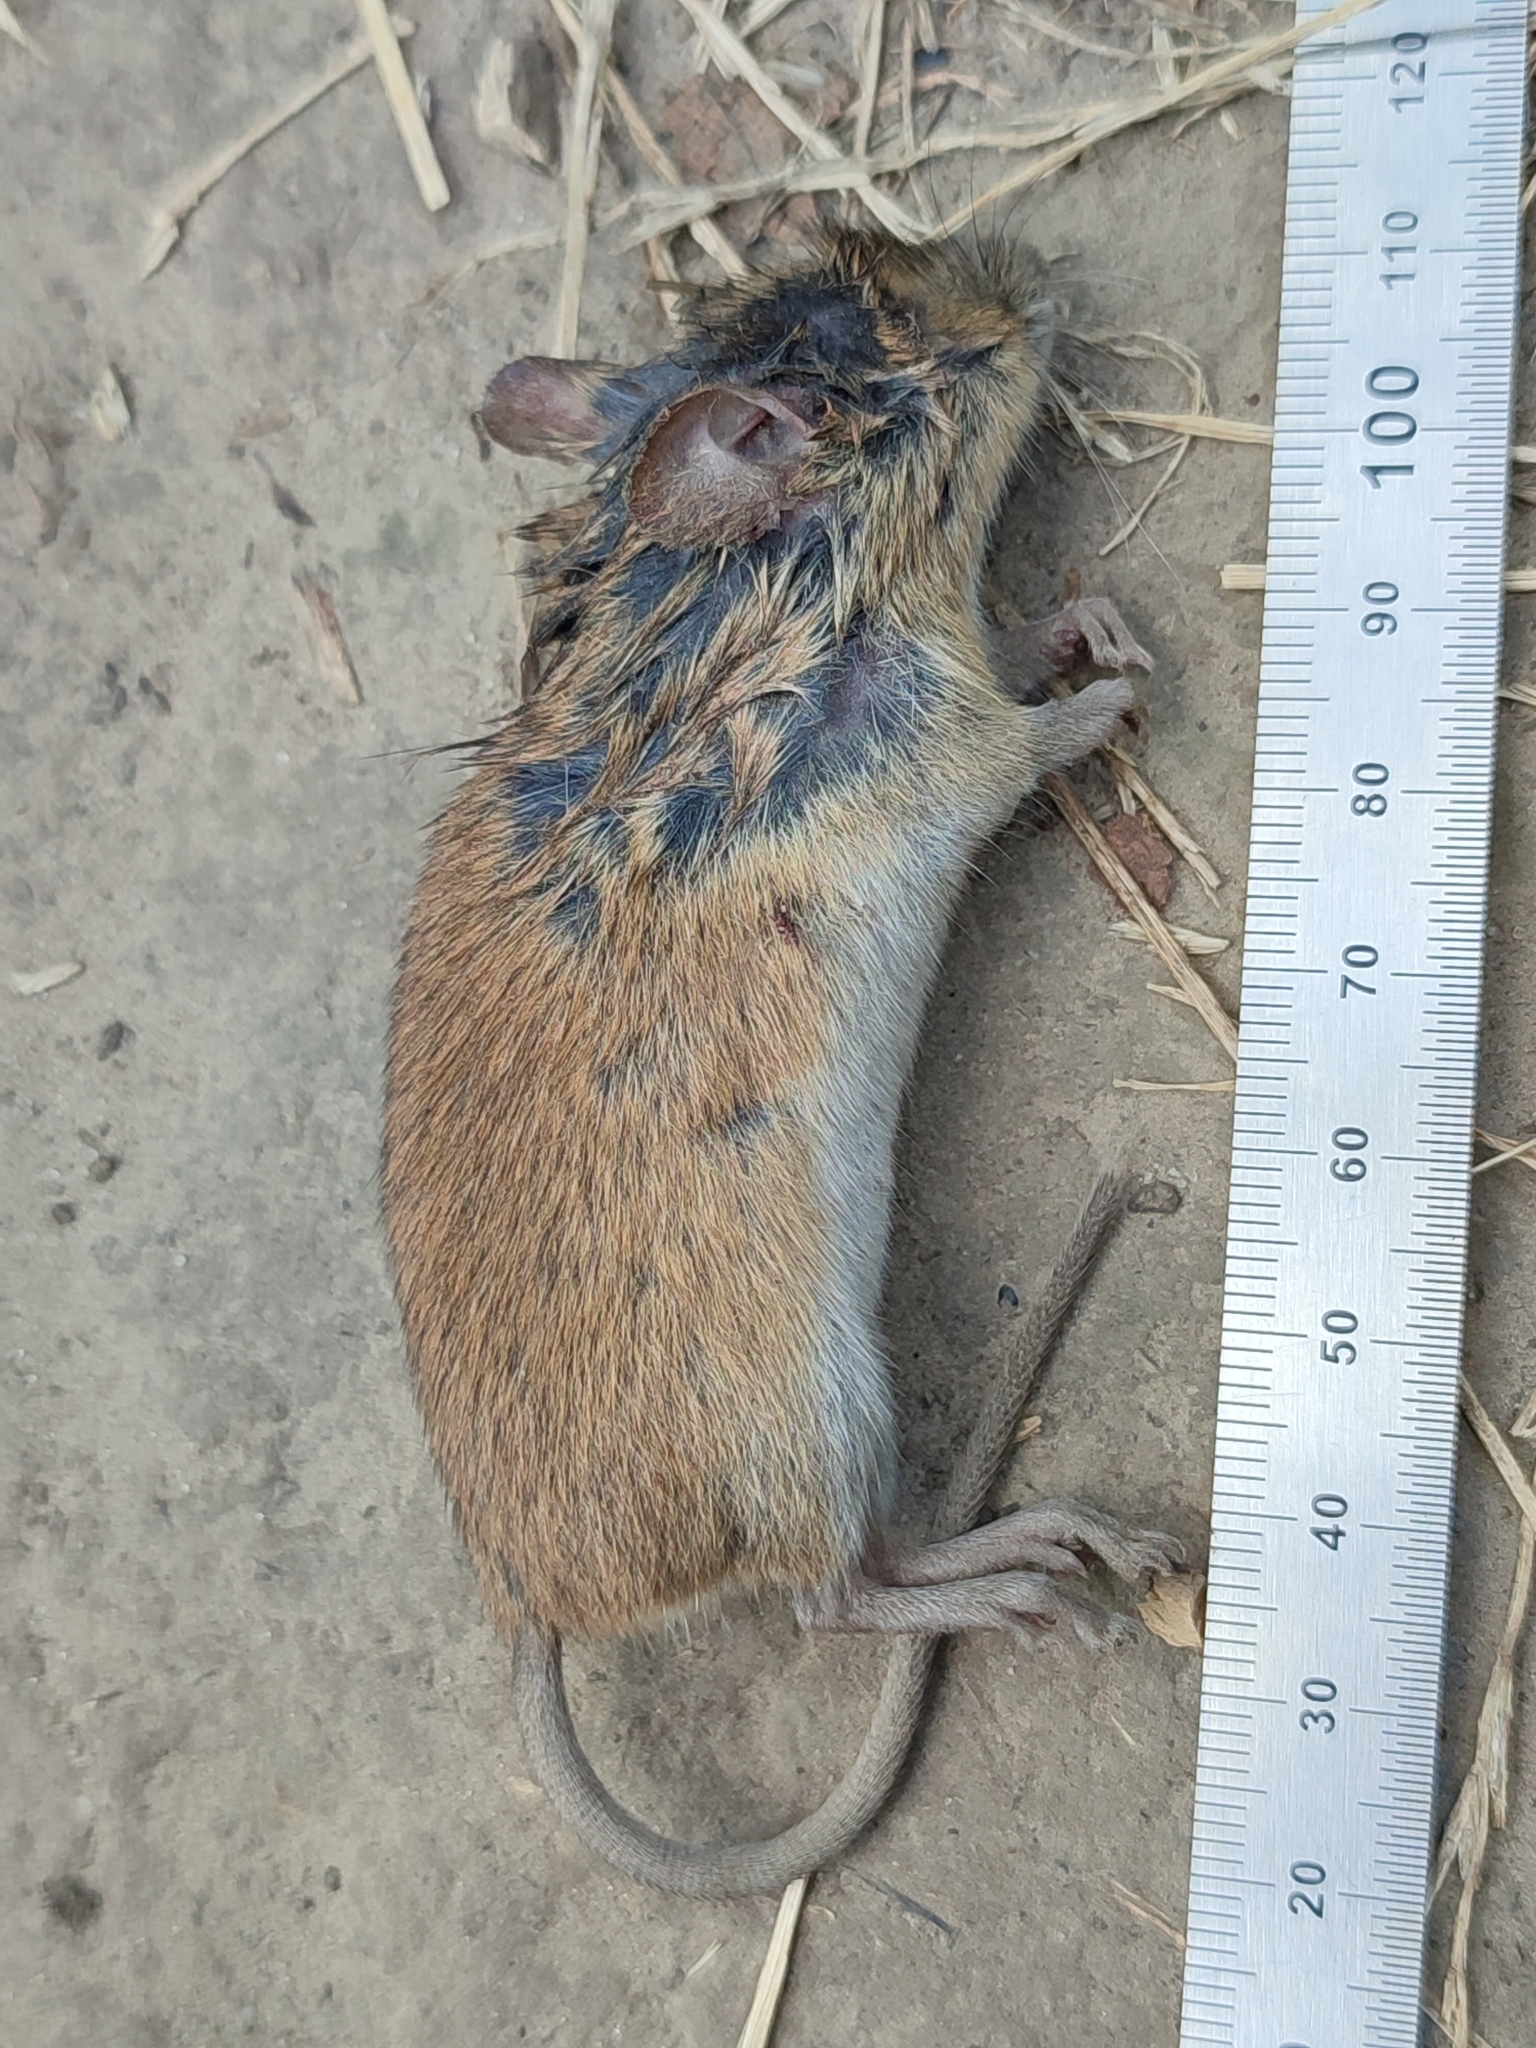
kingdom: Animalia
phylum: Chordata
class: Mammalia
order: Rodentia
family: Muridae
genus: Apodemus
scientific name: Apodemus agrarius
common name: Striped field mouse
